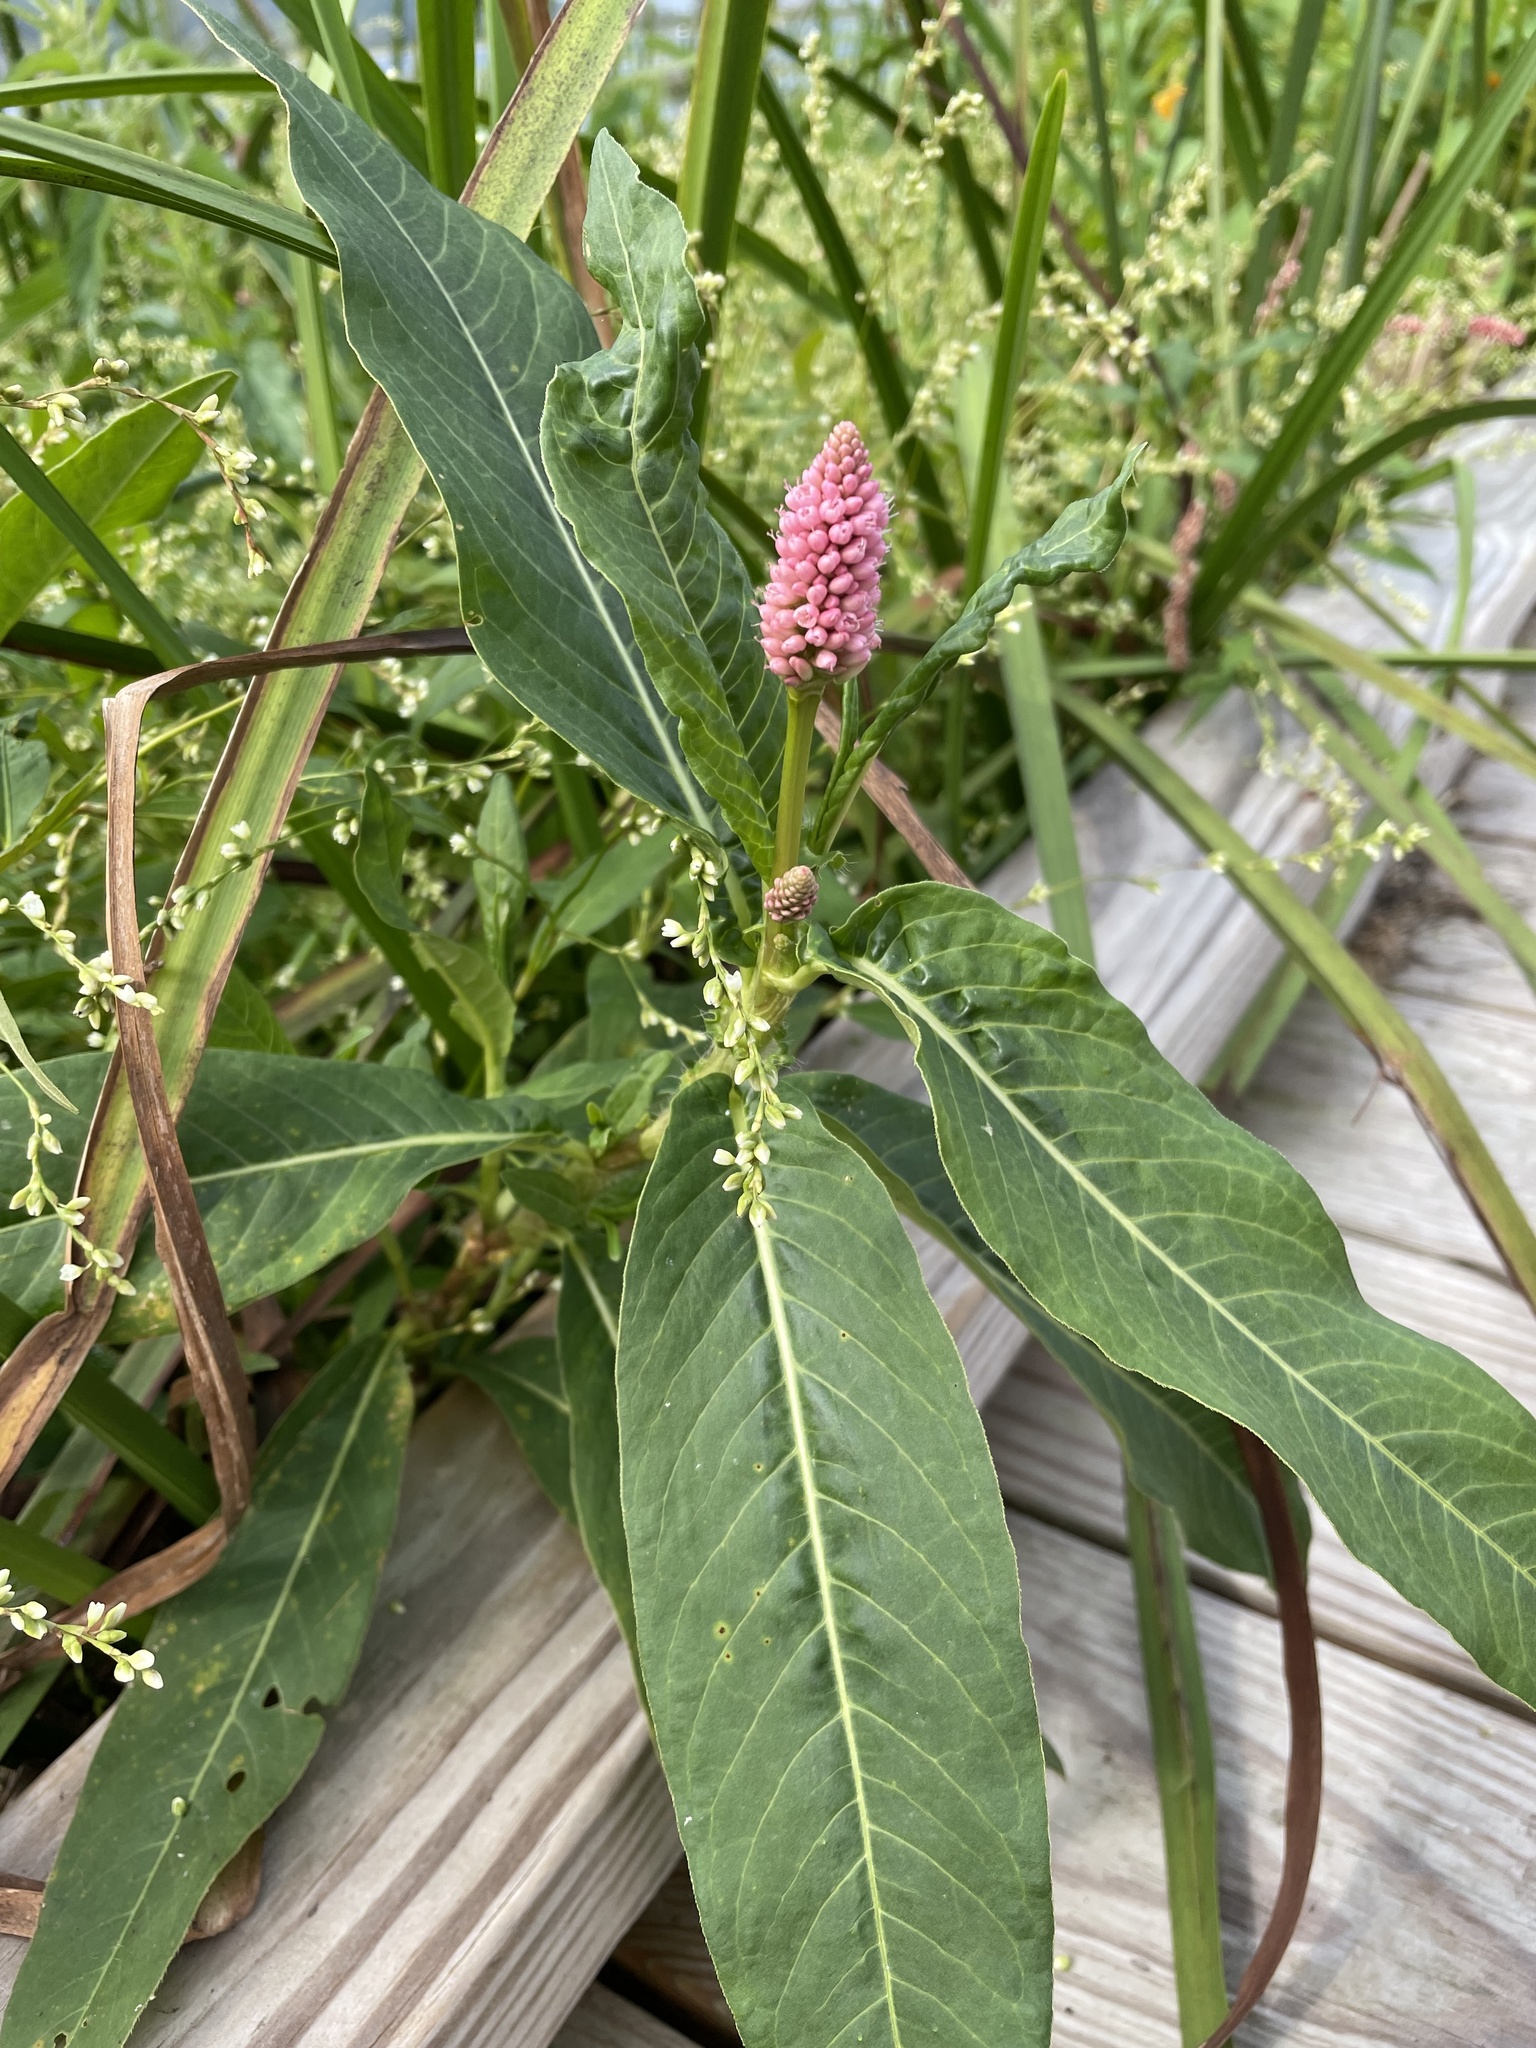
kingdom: Plantae
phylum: Tracheophyta
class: Magnoliopsida
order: Caryophyllales
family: Polygonaceae
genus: Persicaria
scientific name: Persicaria amphibia
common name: Amphibious bistort
